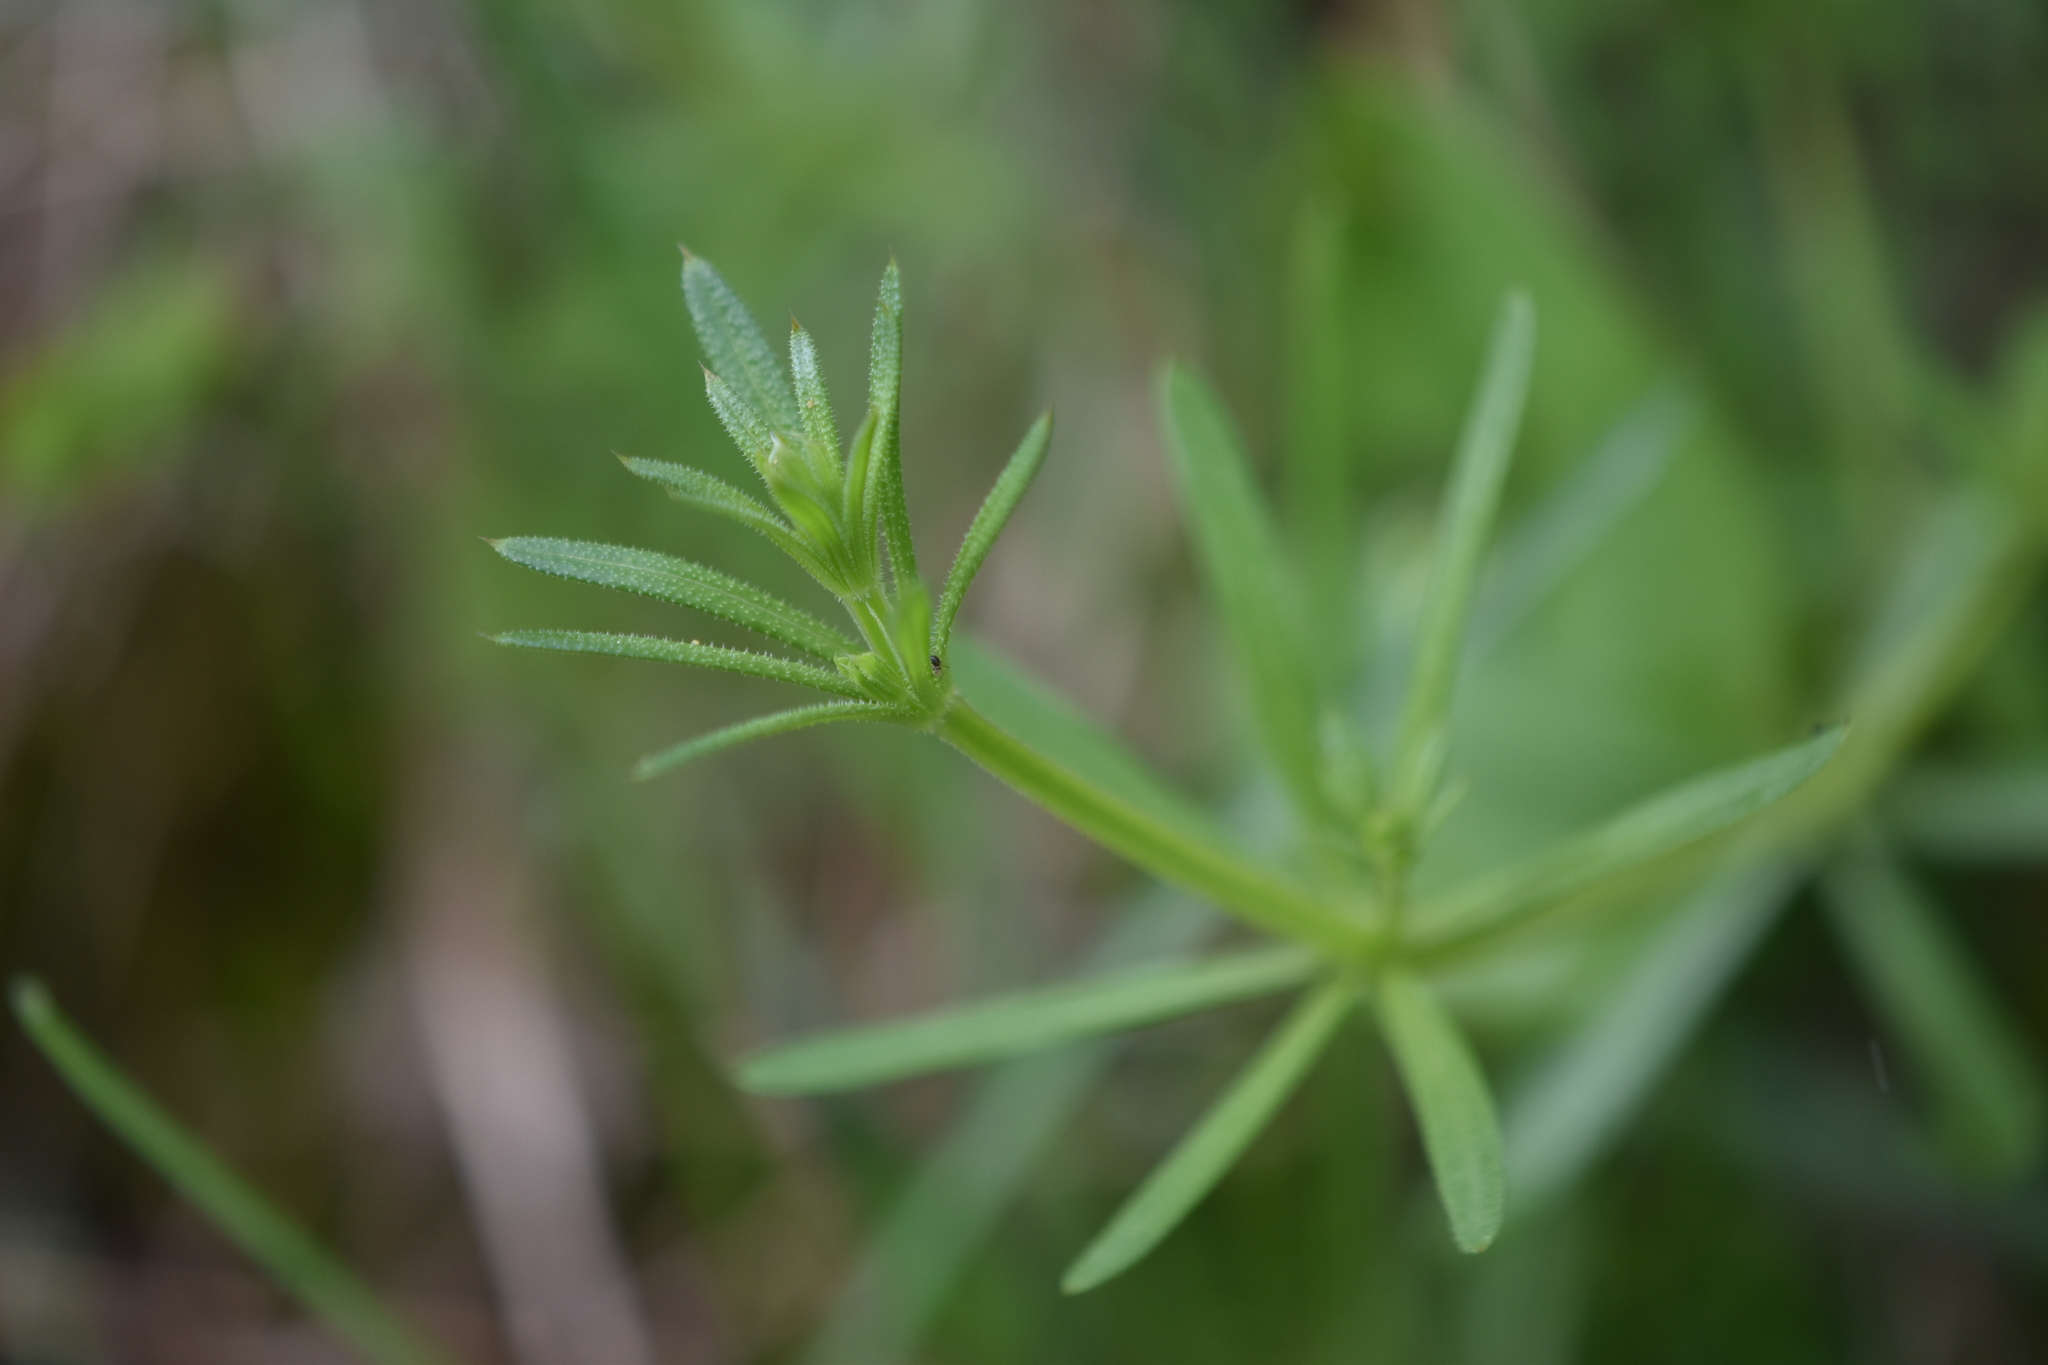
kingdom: Plantae
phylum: Tracheophyta
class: Magnoliopsida
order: Gentianales
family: Rubiaceae
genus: Galium
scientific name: Galium aparine
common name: Cleavers
